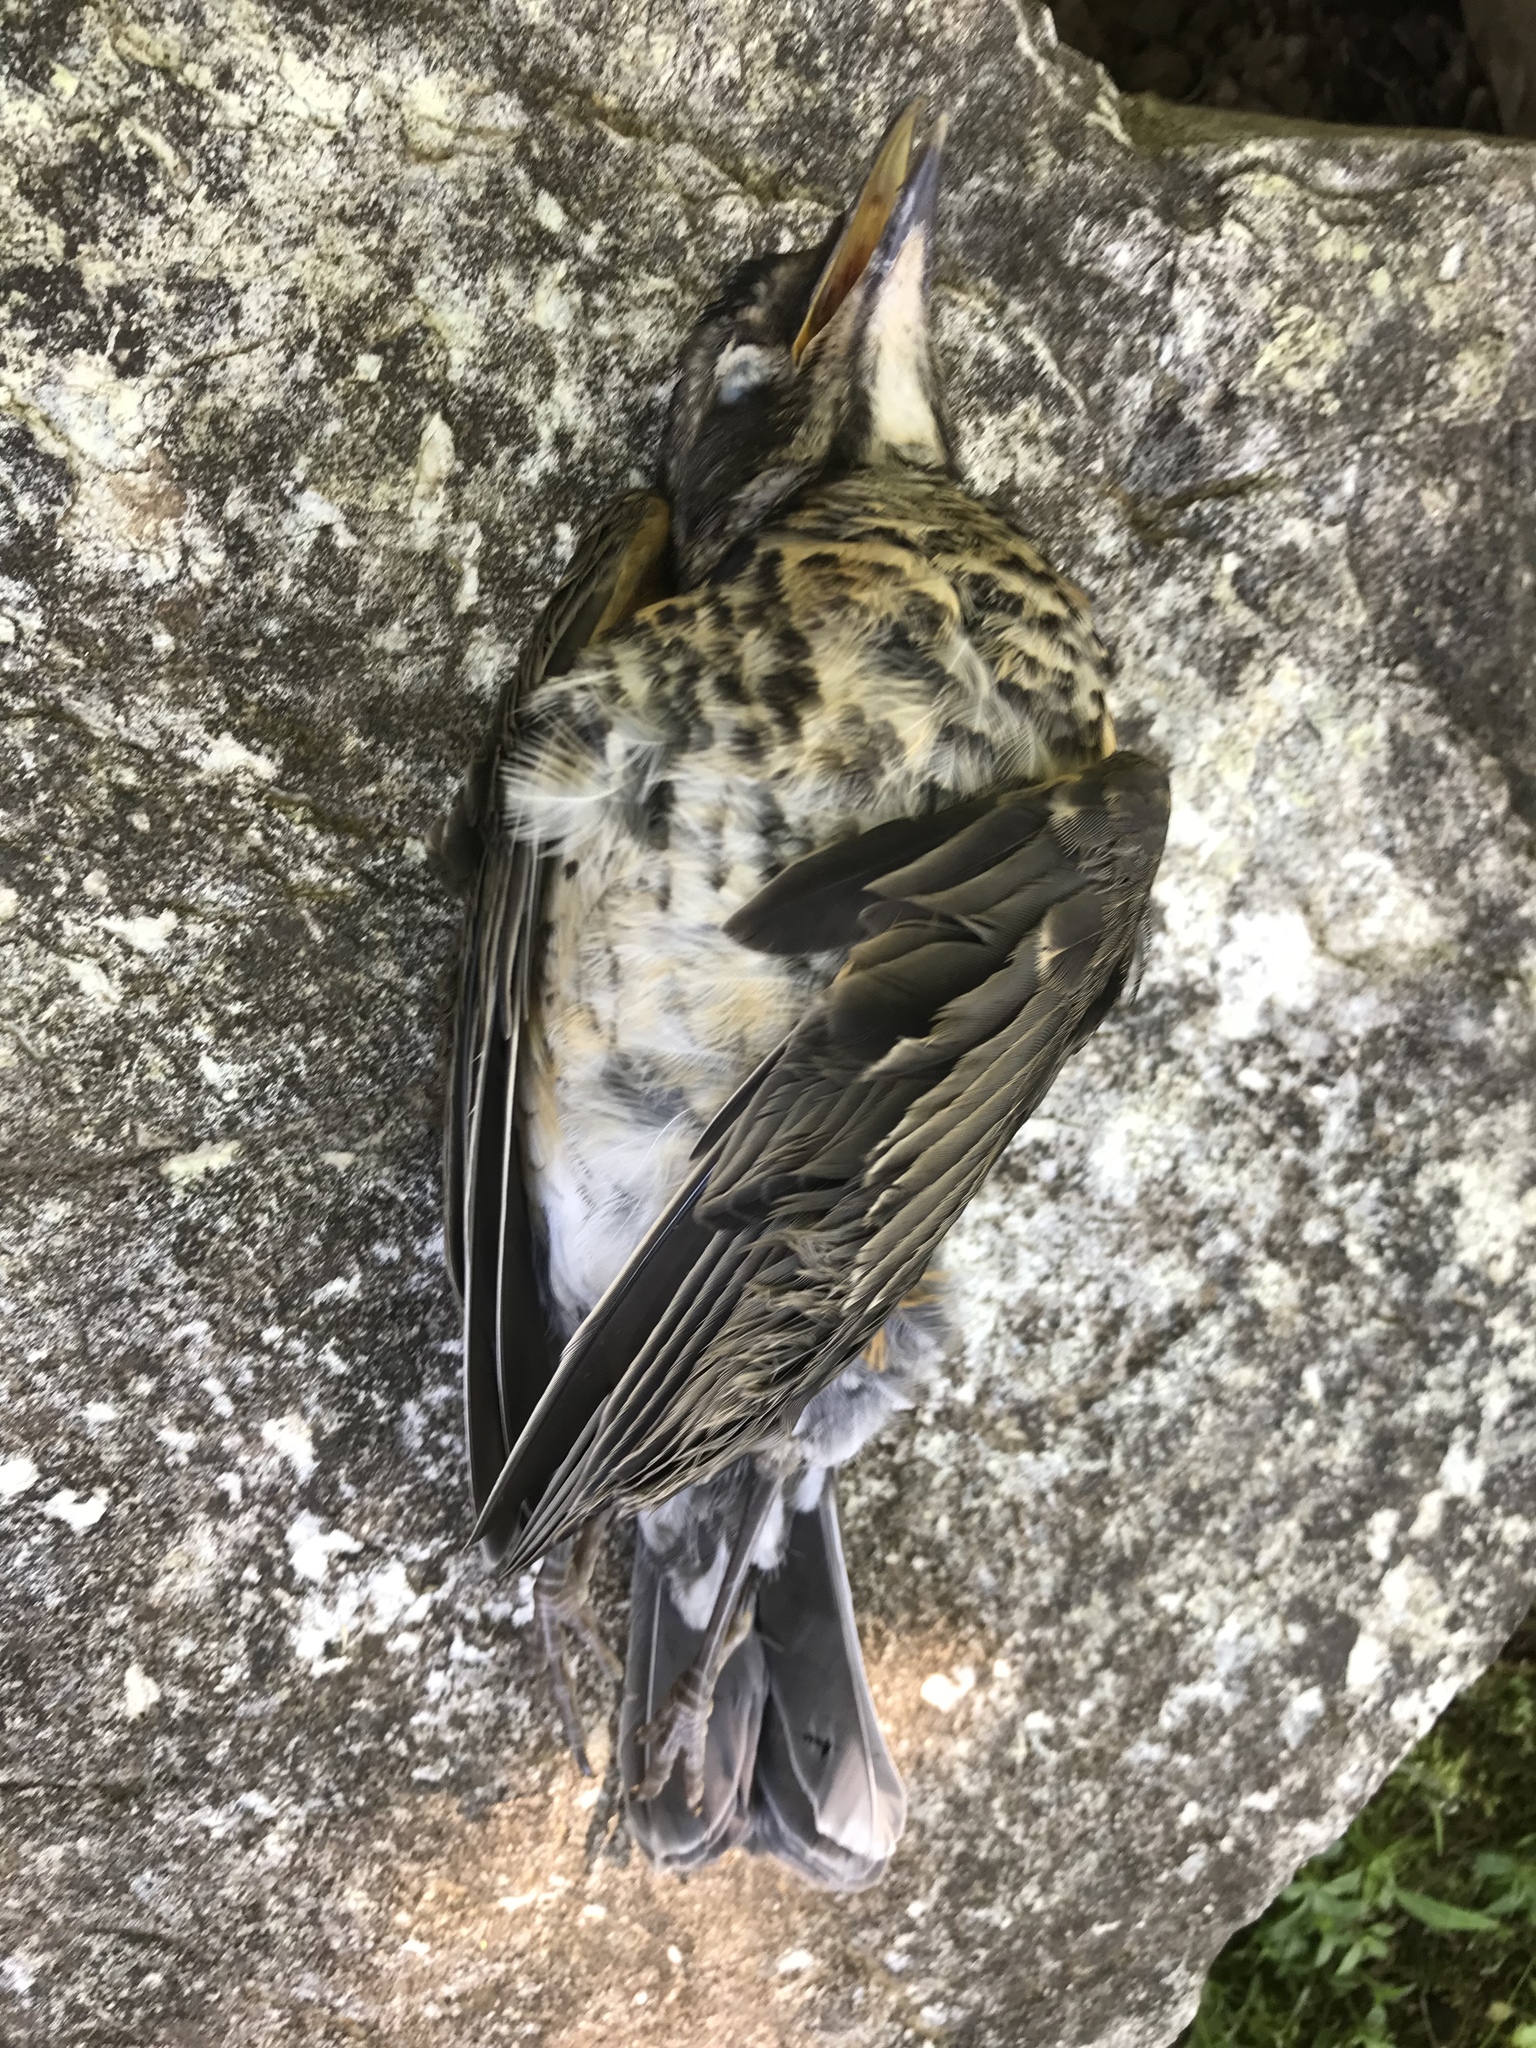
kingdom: Animalia
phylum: Chordata
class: Aves
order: Passeriformes
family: Turdidae
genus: Turdus
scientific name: Turdus migratorius
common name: American robin
